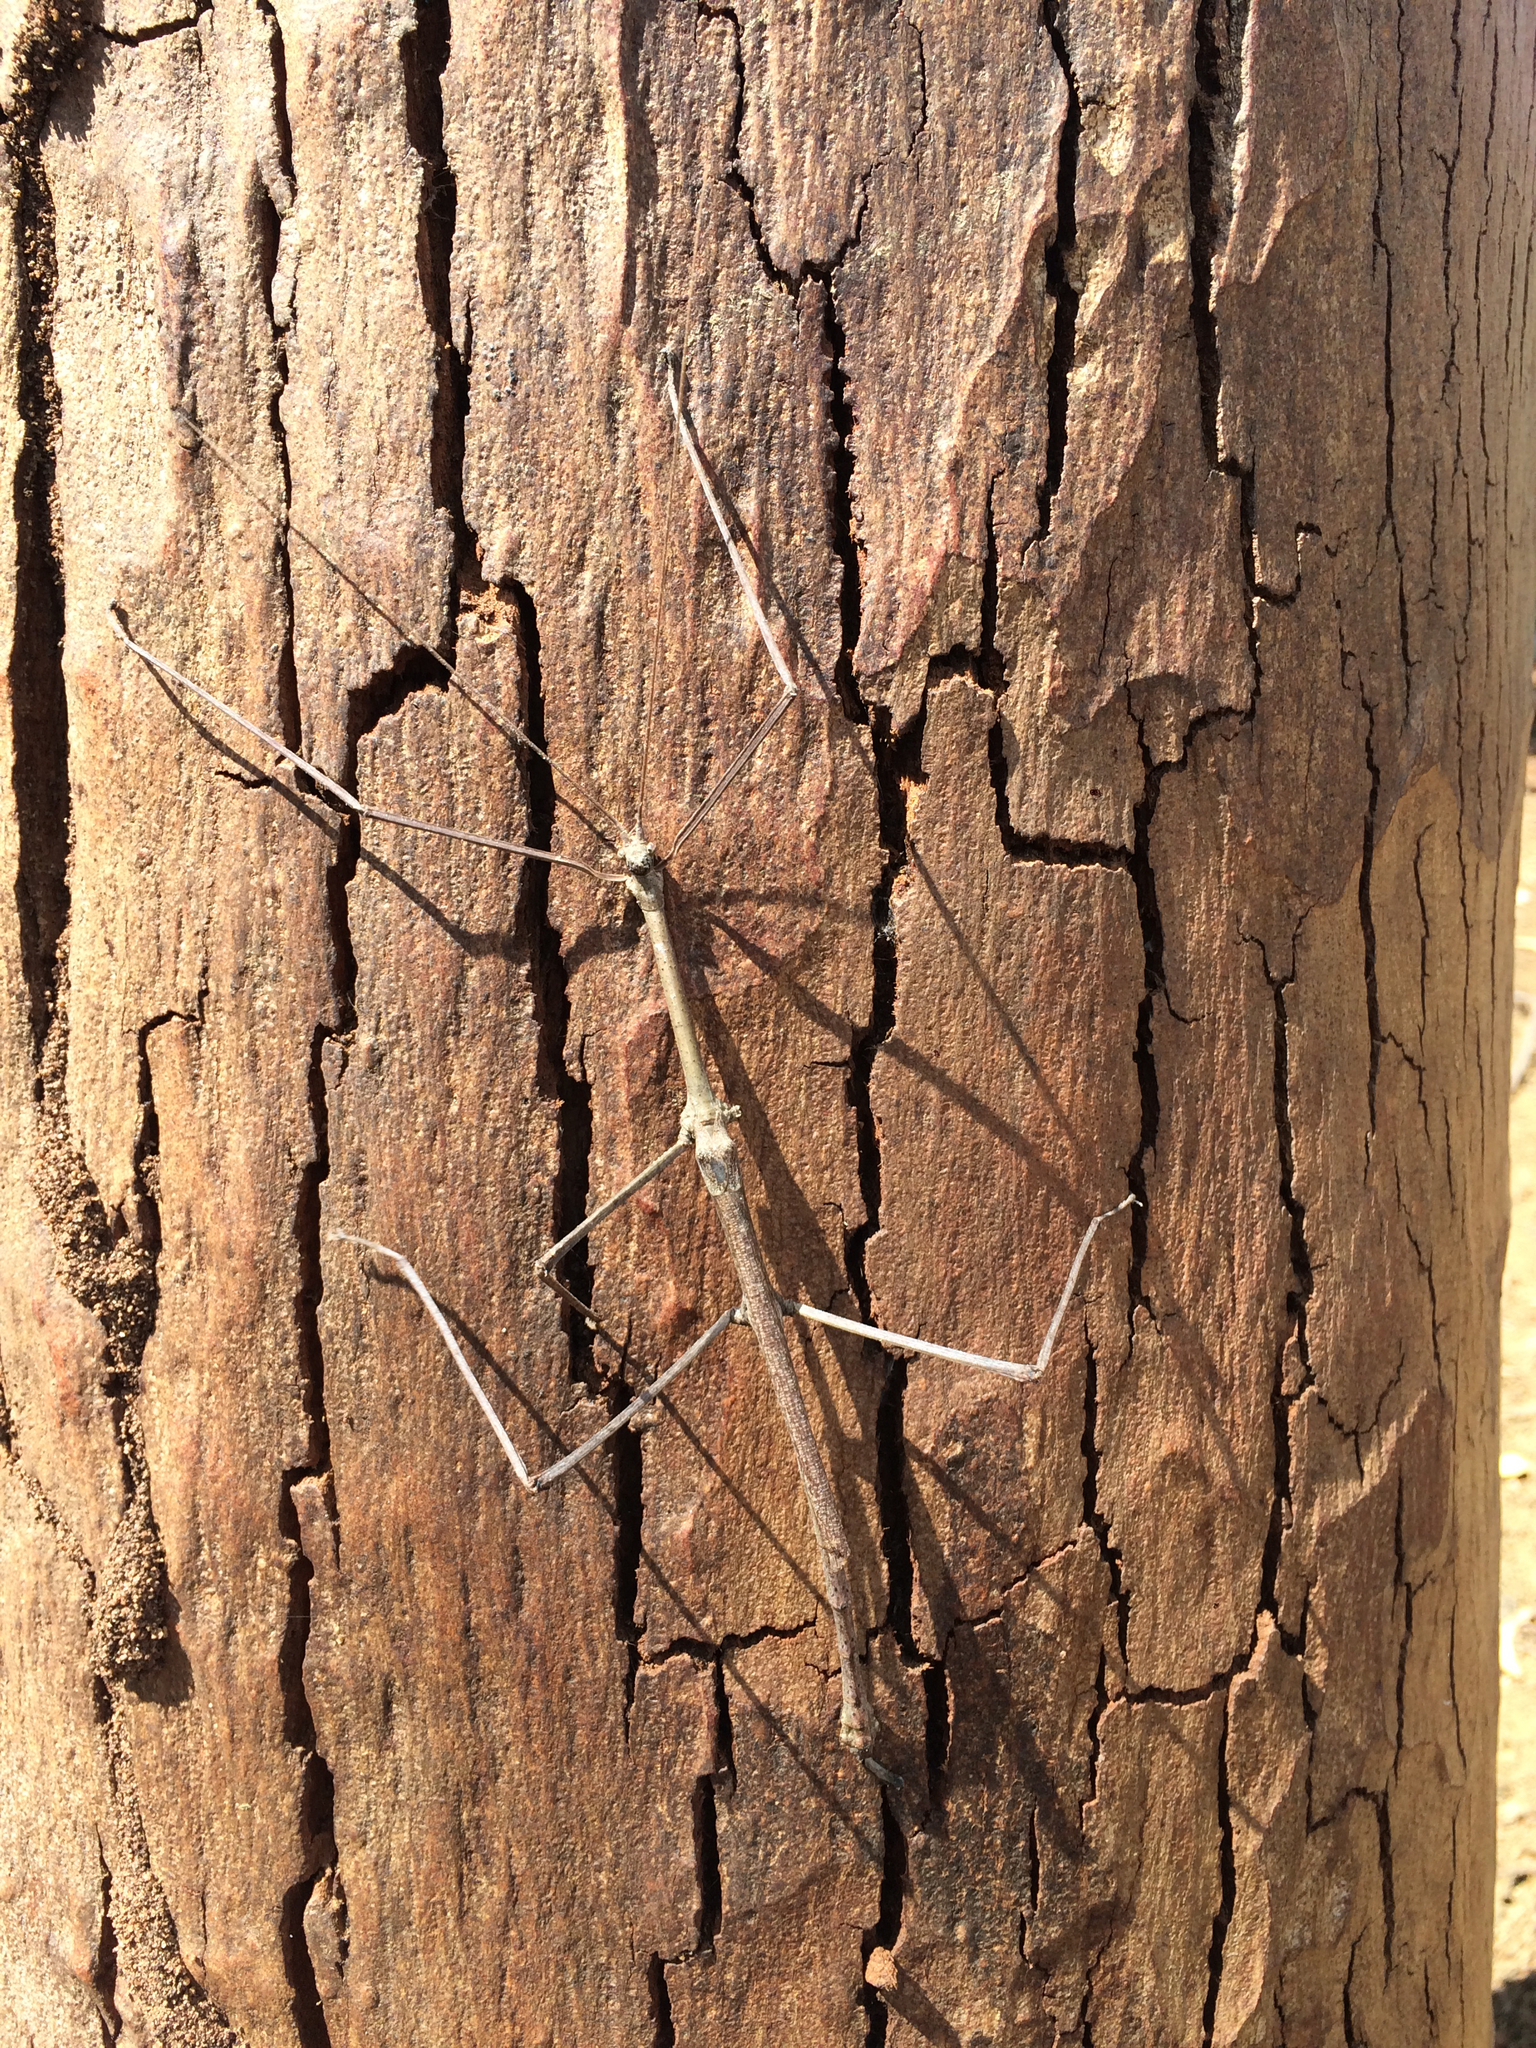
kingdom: Animalia
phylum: Arthropoda
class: Insecta
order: Phasmida
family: Phasmatidae
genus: Cladomorphus
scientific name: Cladomorphus phyllinus
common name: Brazilian giant stick insect
